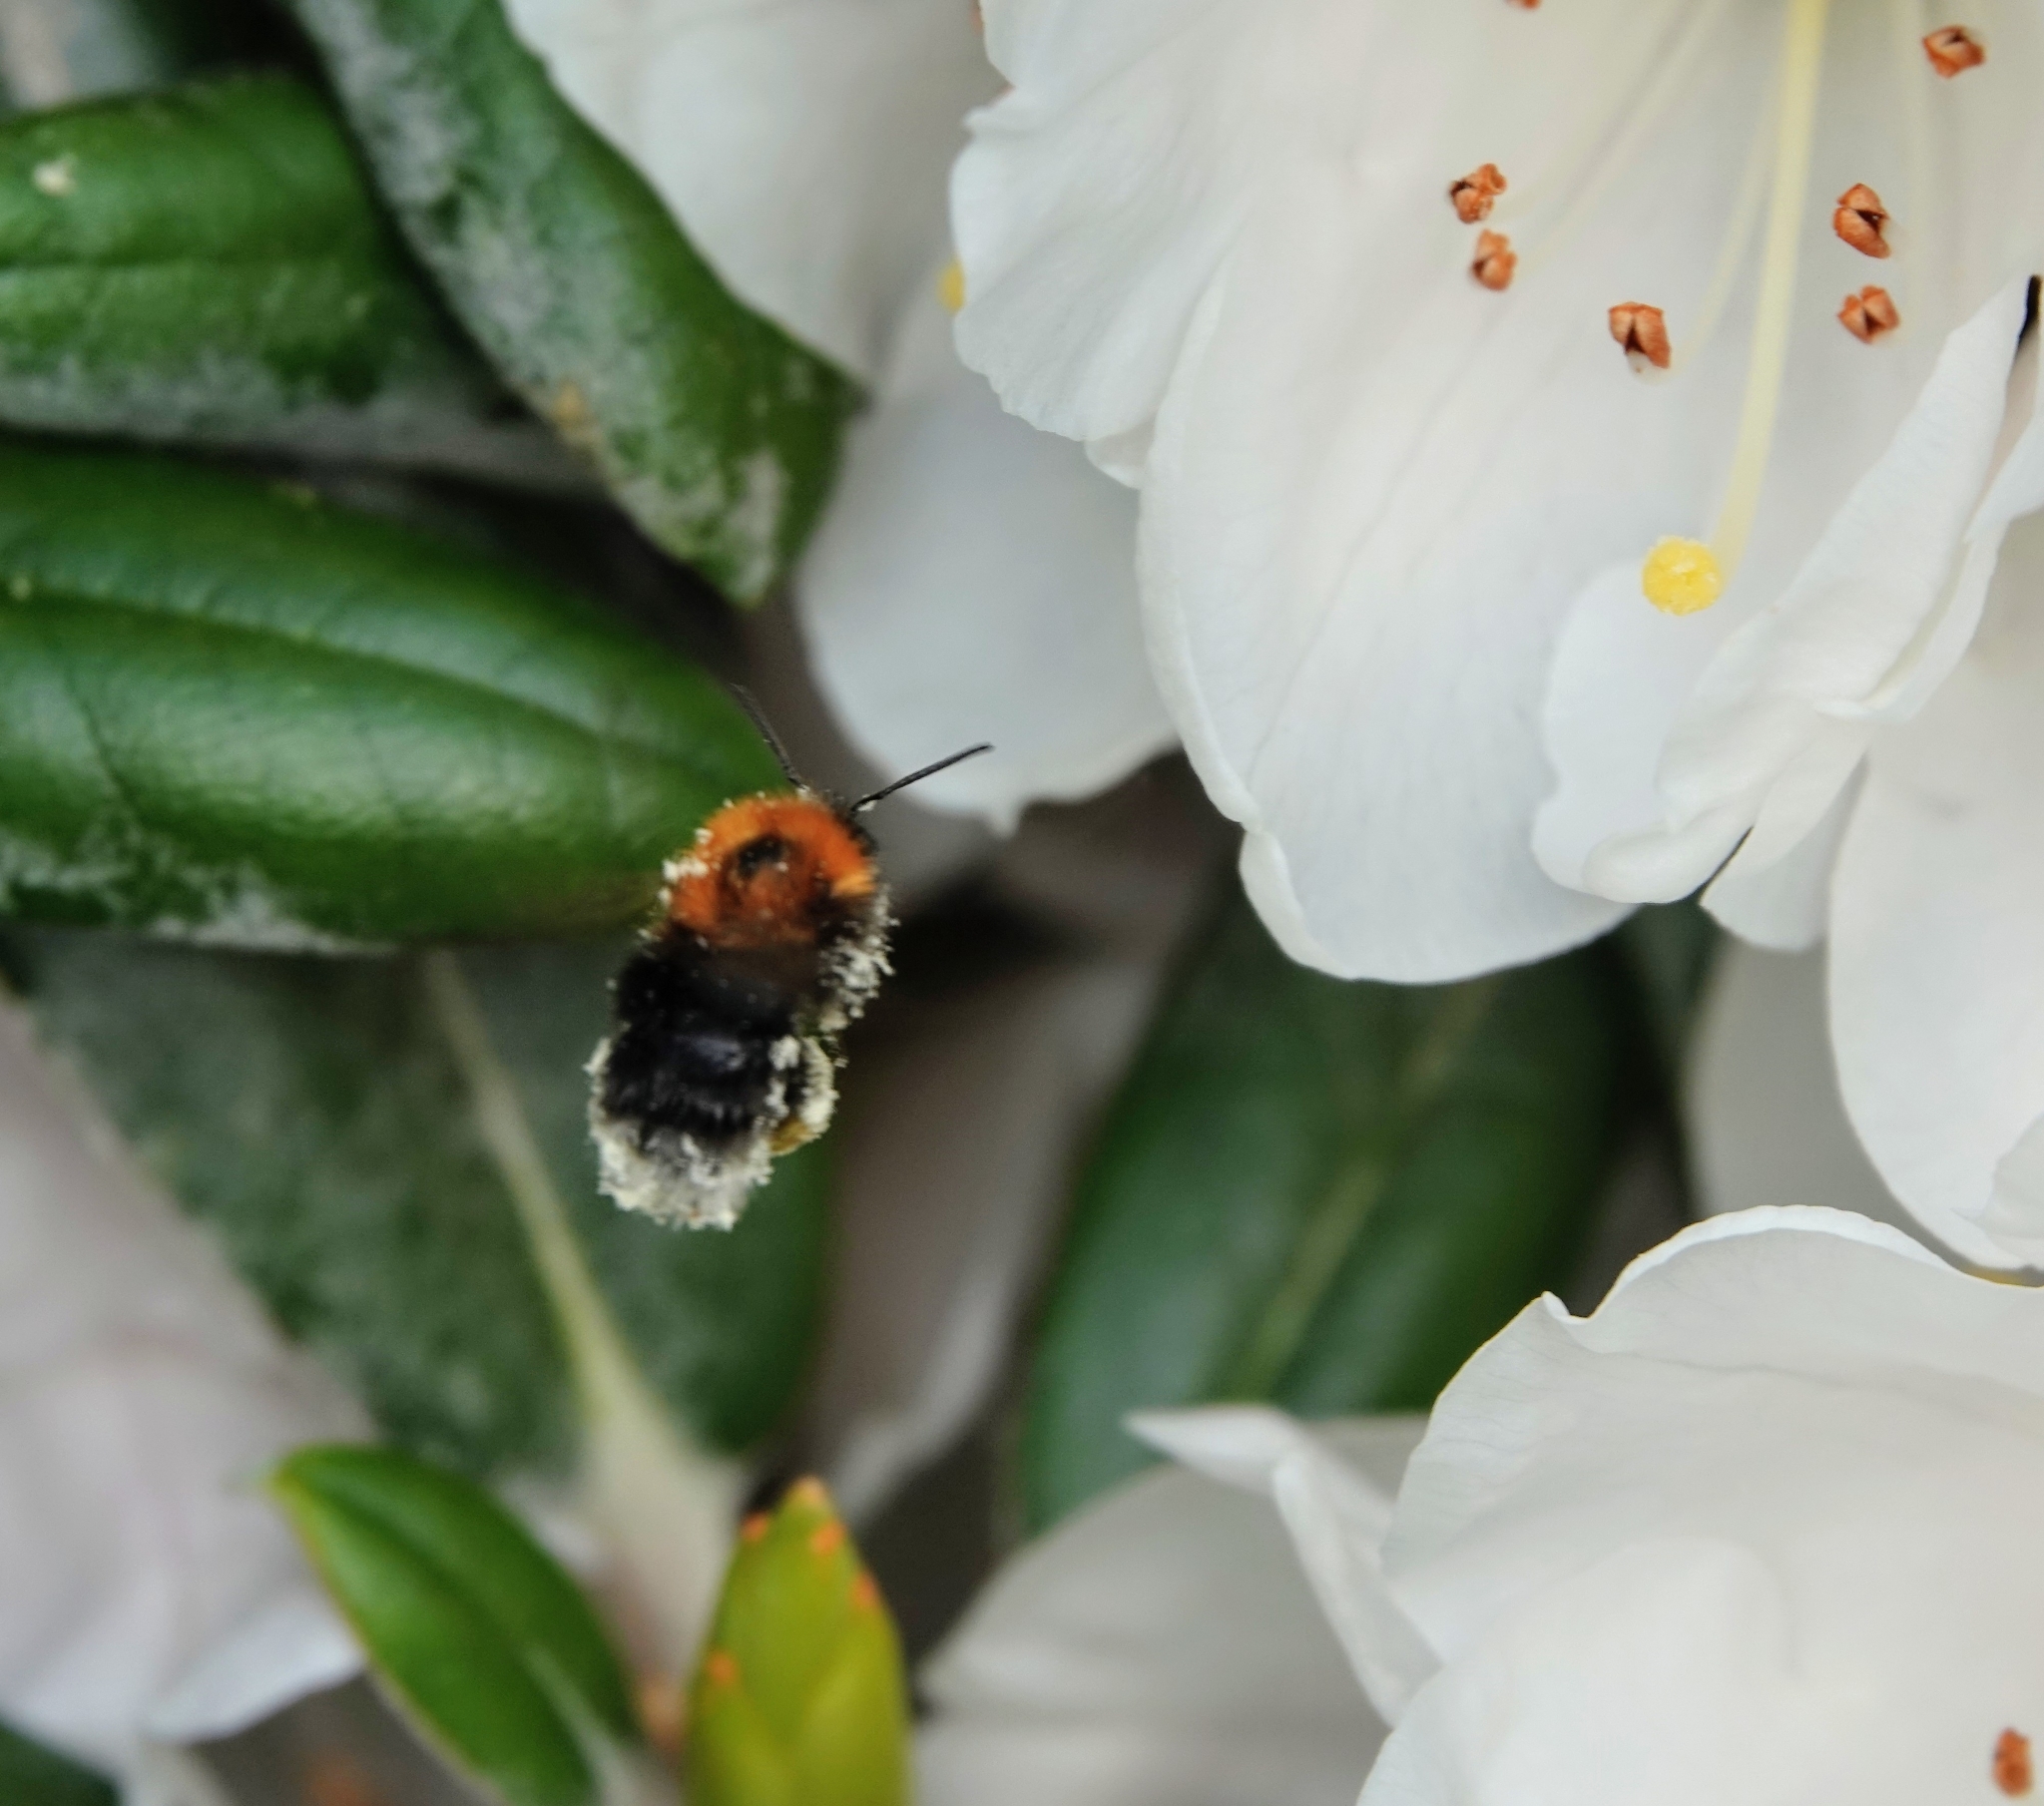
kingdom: Animalia
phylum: Arthropoda
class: Insecta
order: Hymenoptera
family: Apidae
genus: Bombus
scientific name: Bombus hypnorum
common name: New garden bumblebee
